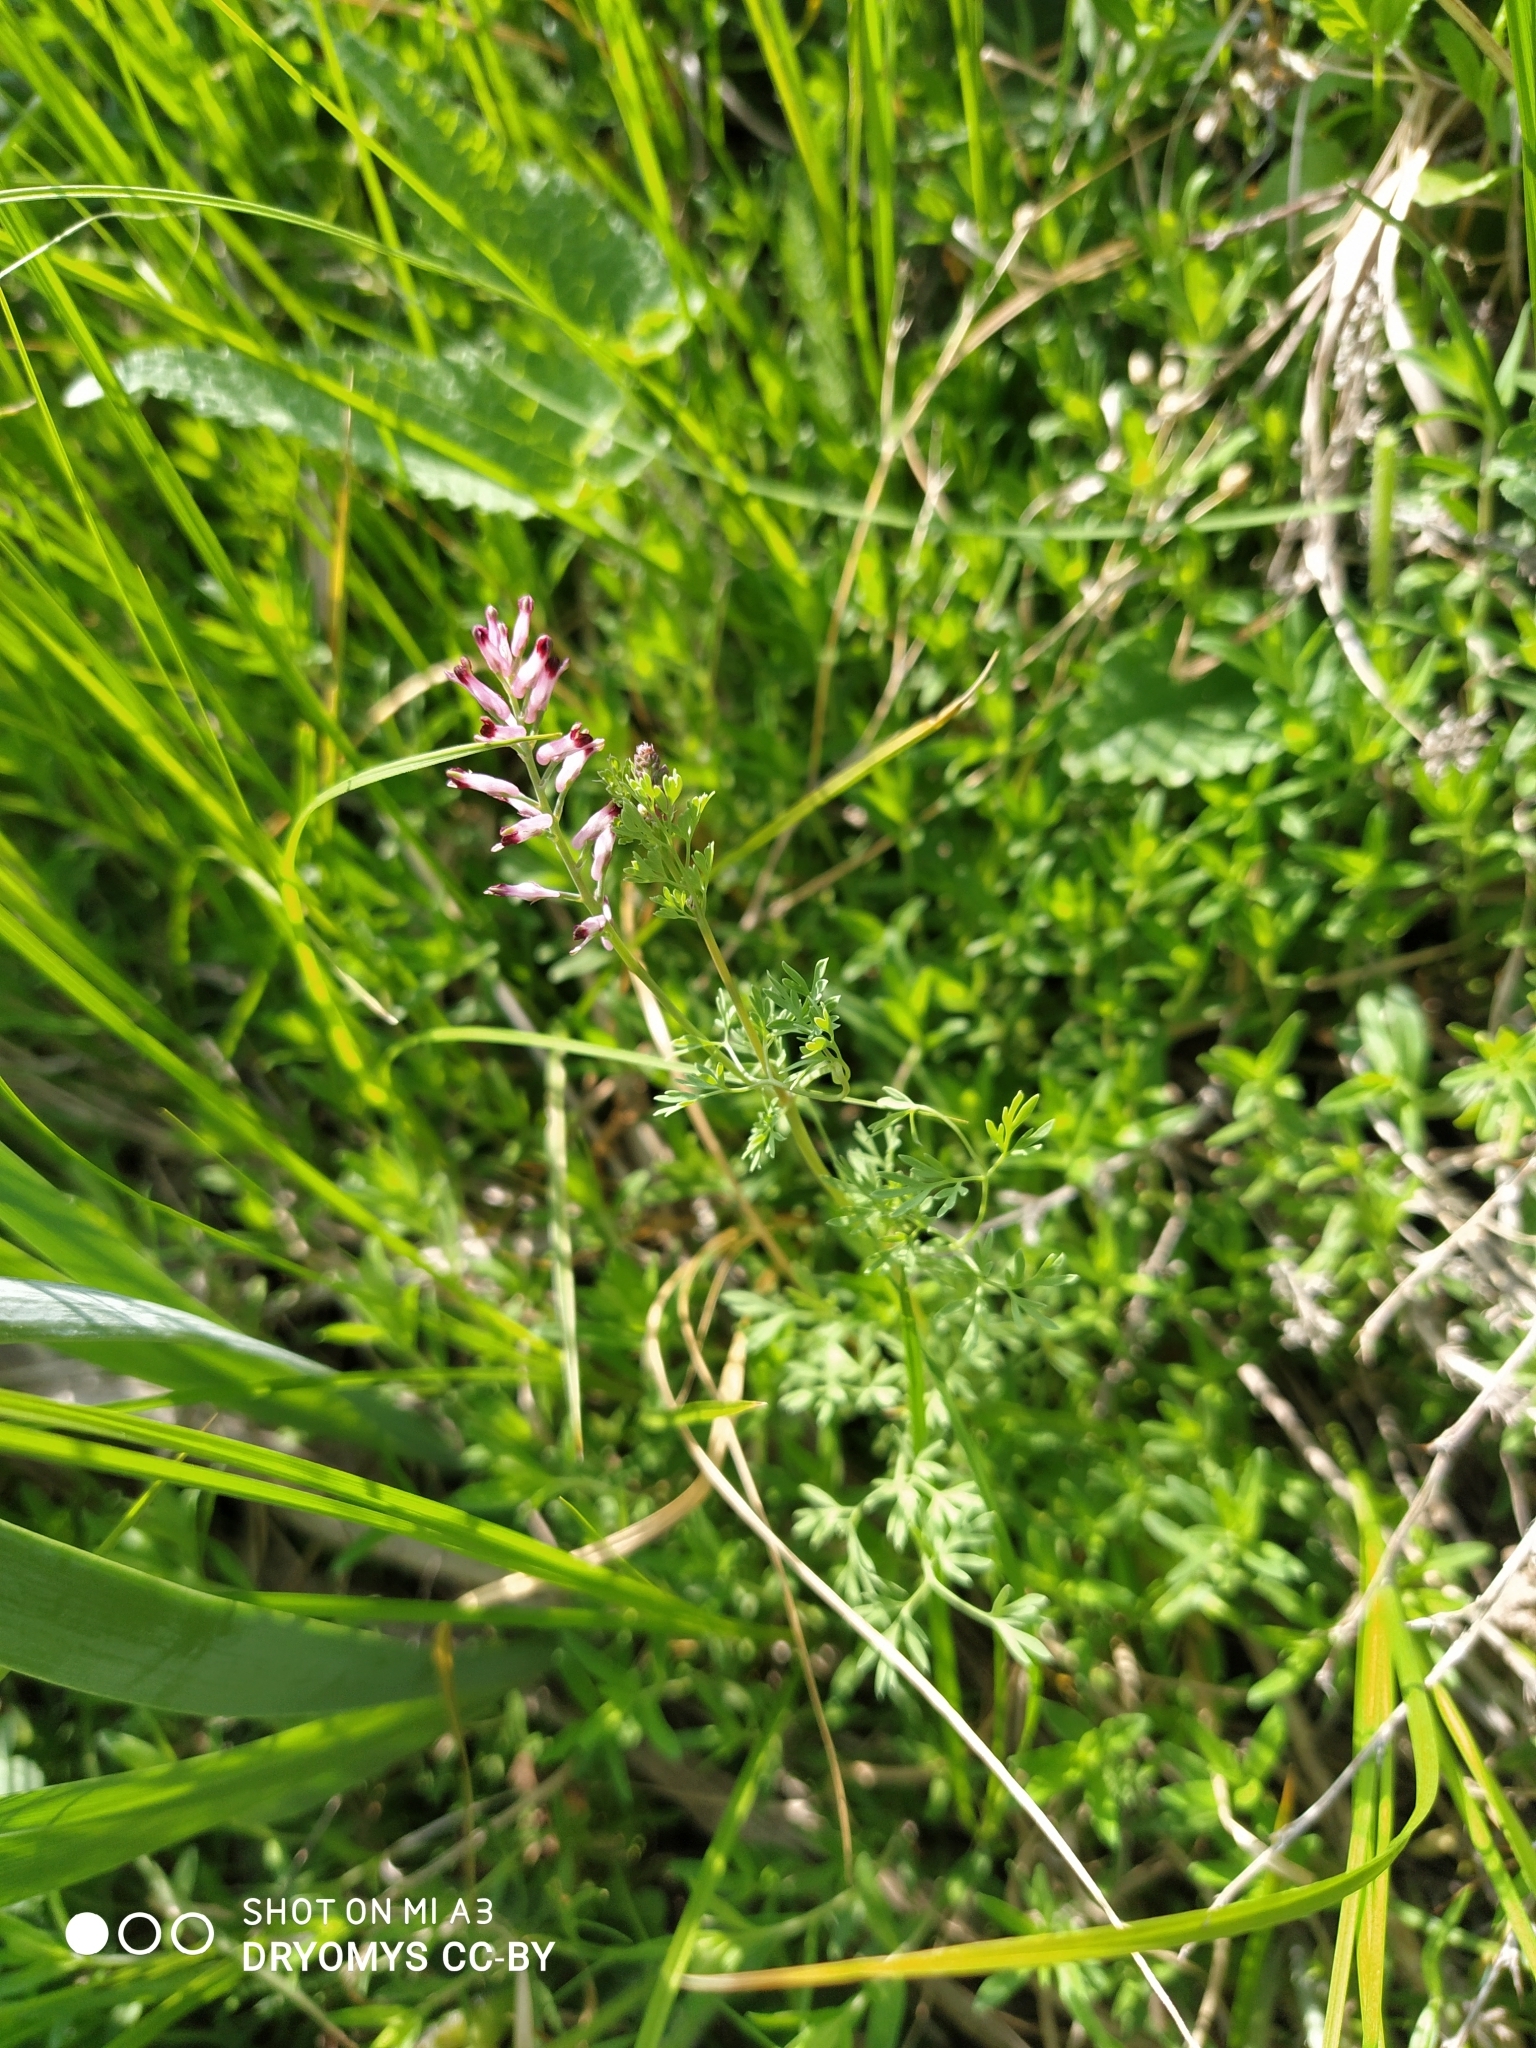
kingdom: Plantae
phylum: Tracheophyta
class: Magnoliopsida
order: Ranunculales
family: Papaveraceae
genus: Fumaria
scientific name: Fumaria officinalis
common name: Common fumitory
